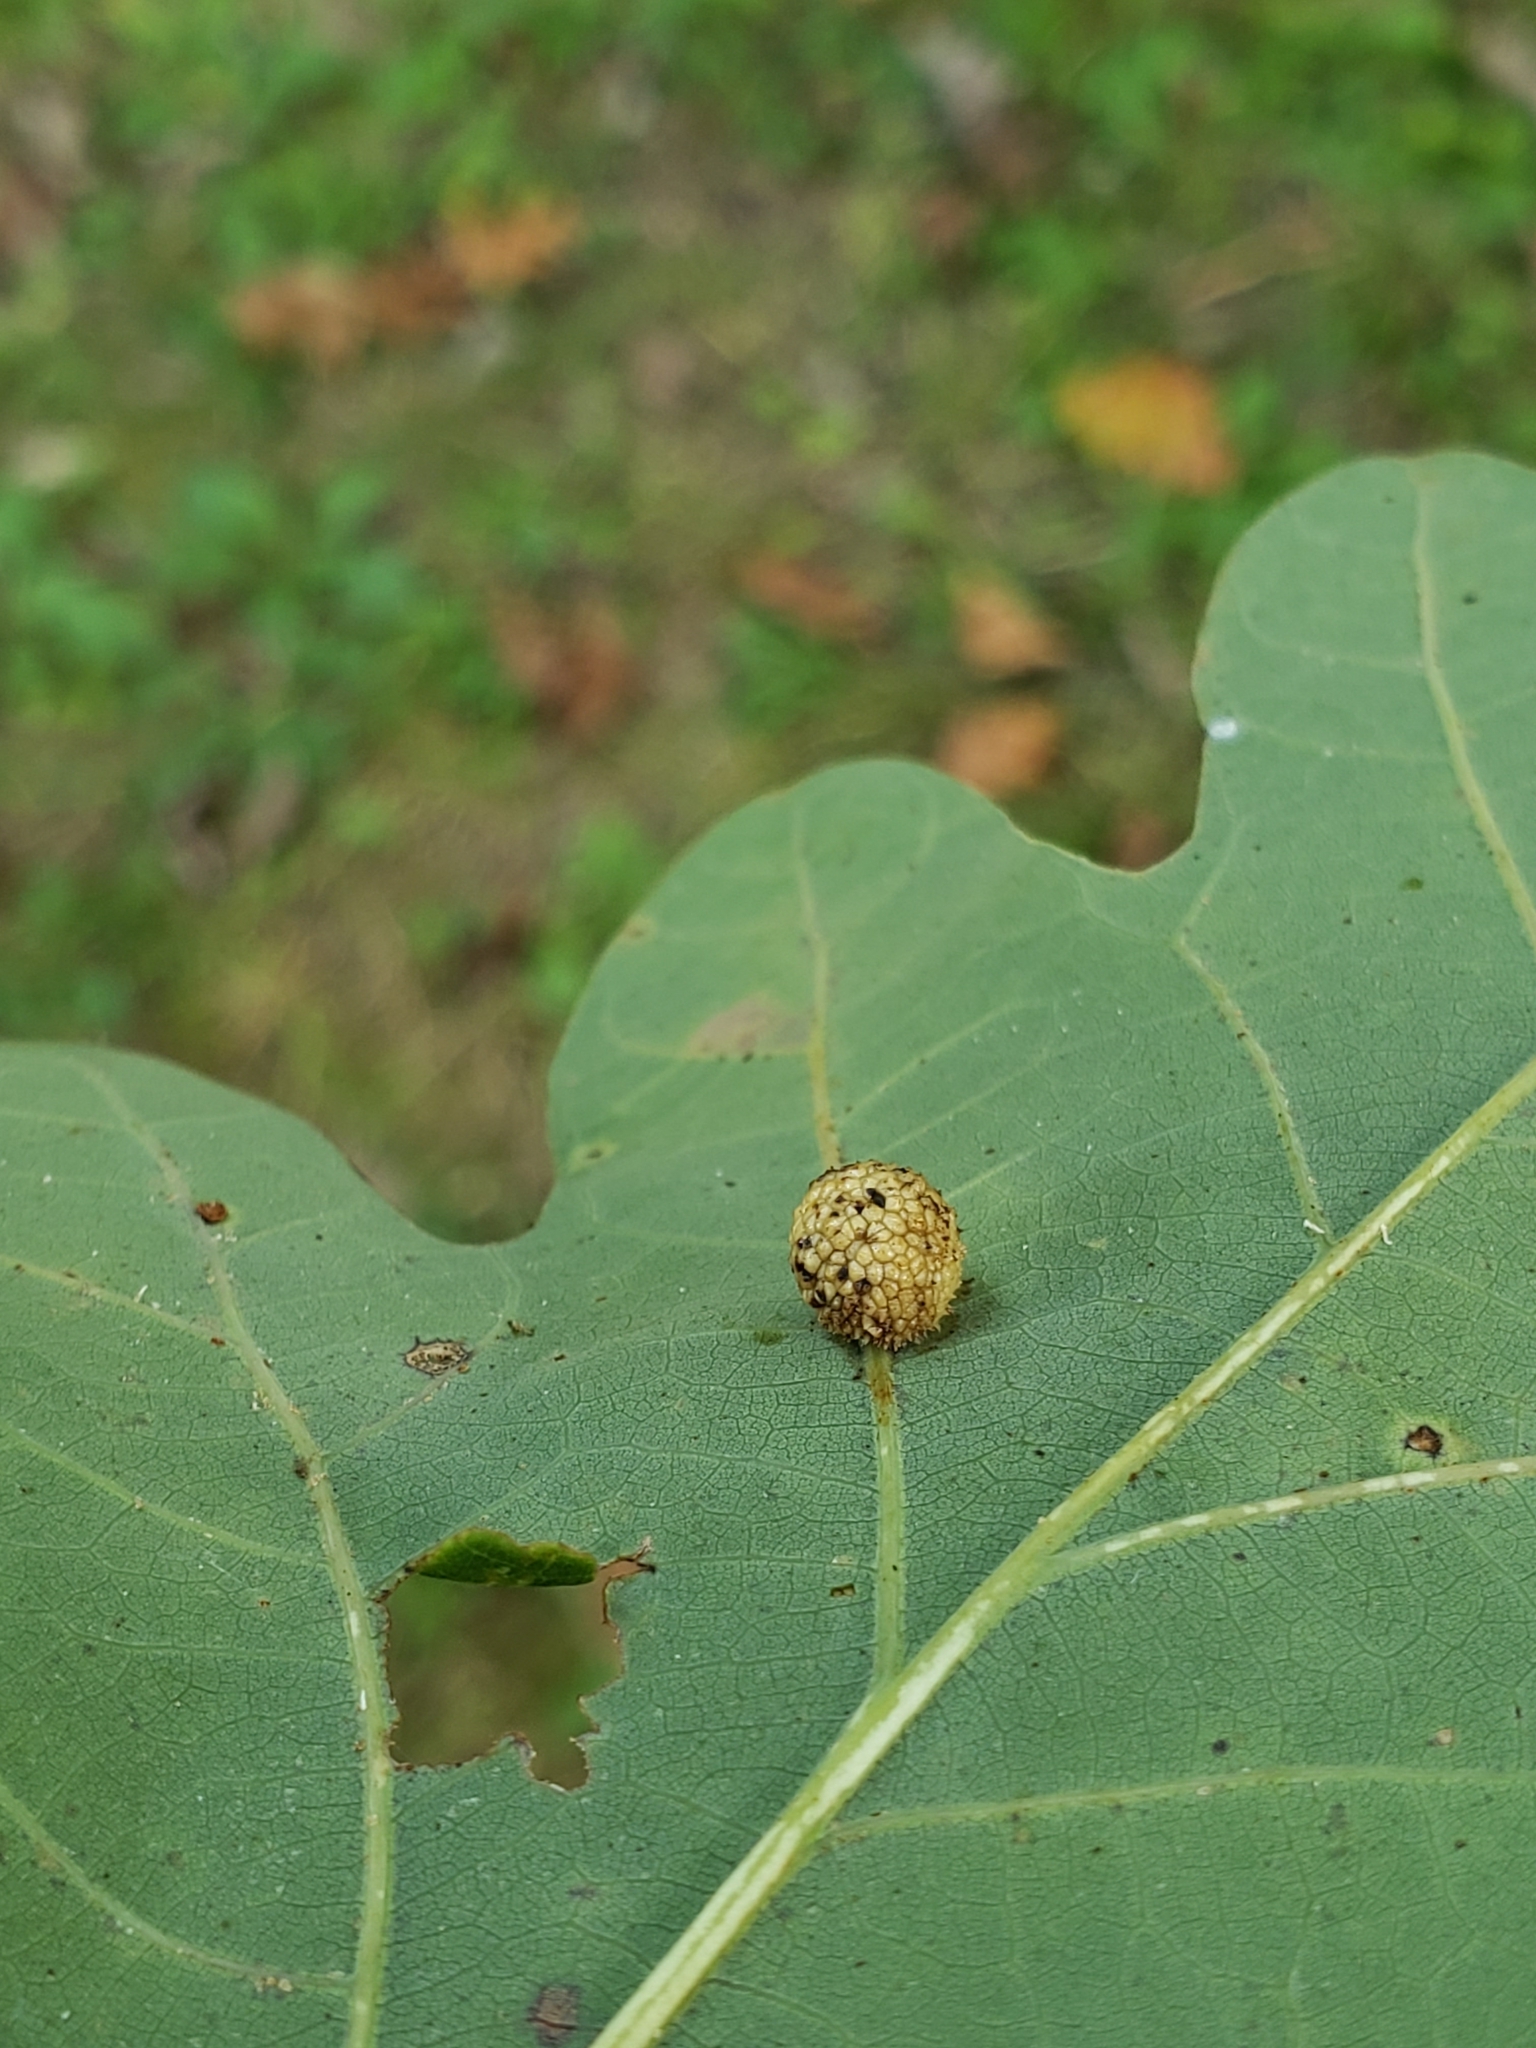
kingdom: Animalia
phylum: Arthropoda
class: Insecta
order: Hymenoptera
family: Cynipidae
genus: Acraspis
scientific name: Acraspis
